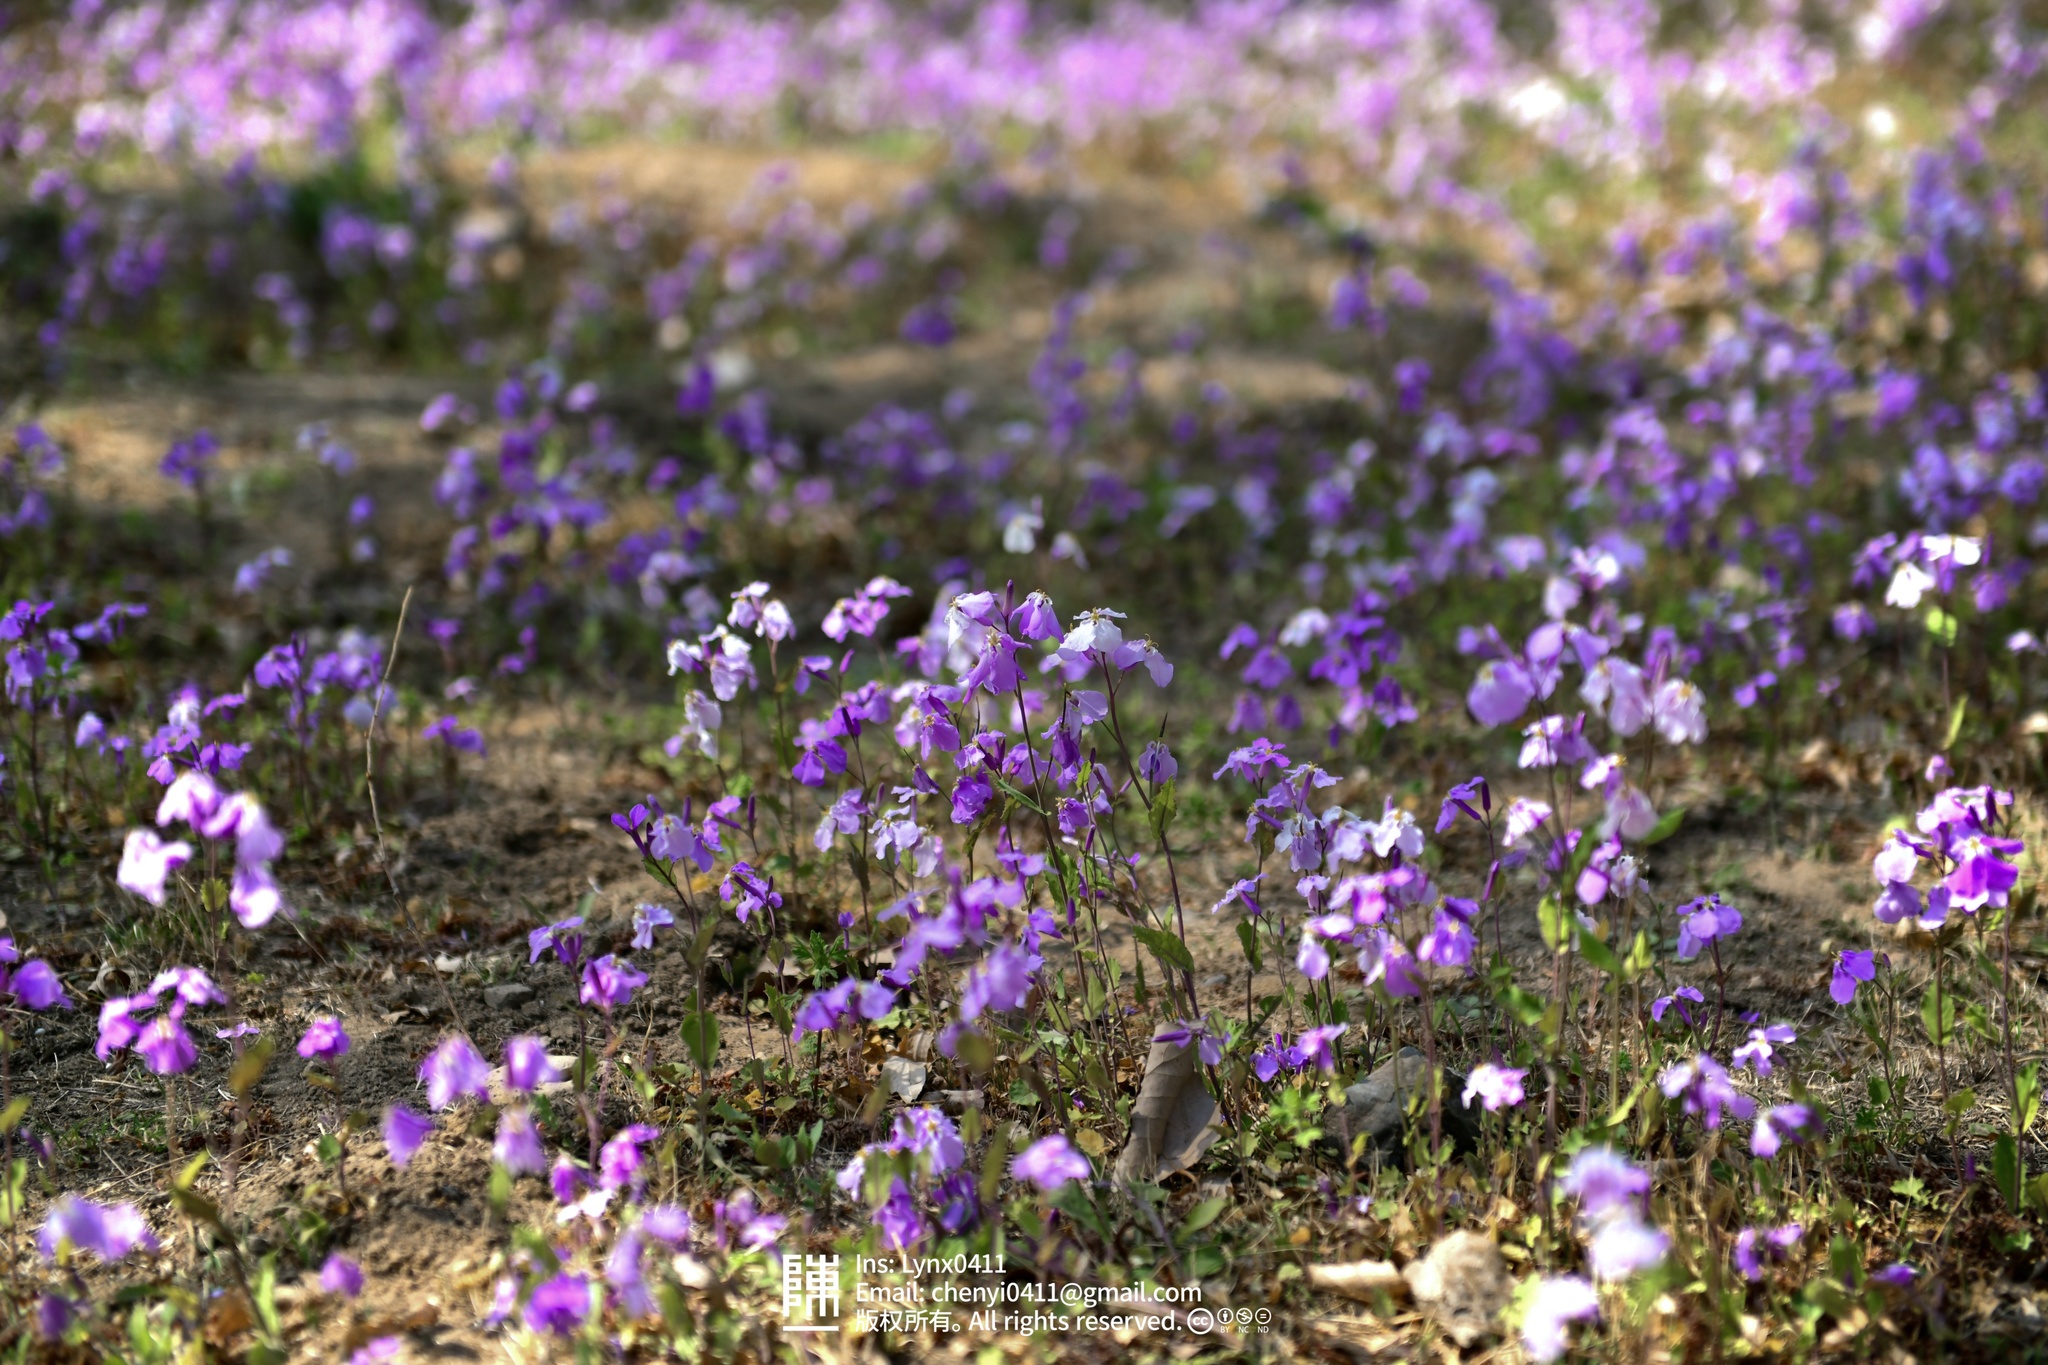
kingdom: Plantae
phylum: Tracheophyta
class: Magnoliopsida
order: Brassicales
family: Brassicaceae
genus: Orychophragmus
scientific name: Orychophragmus violaceus
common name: Mustard
